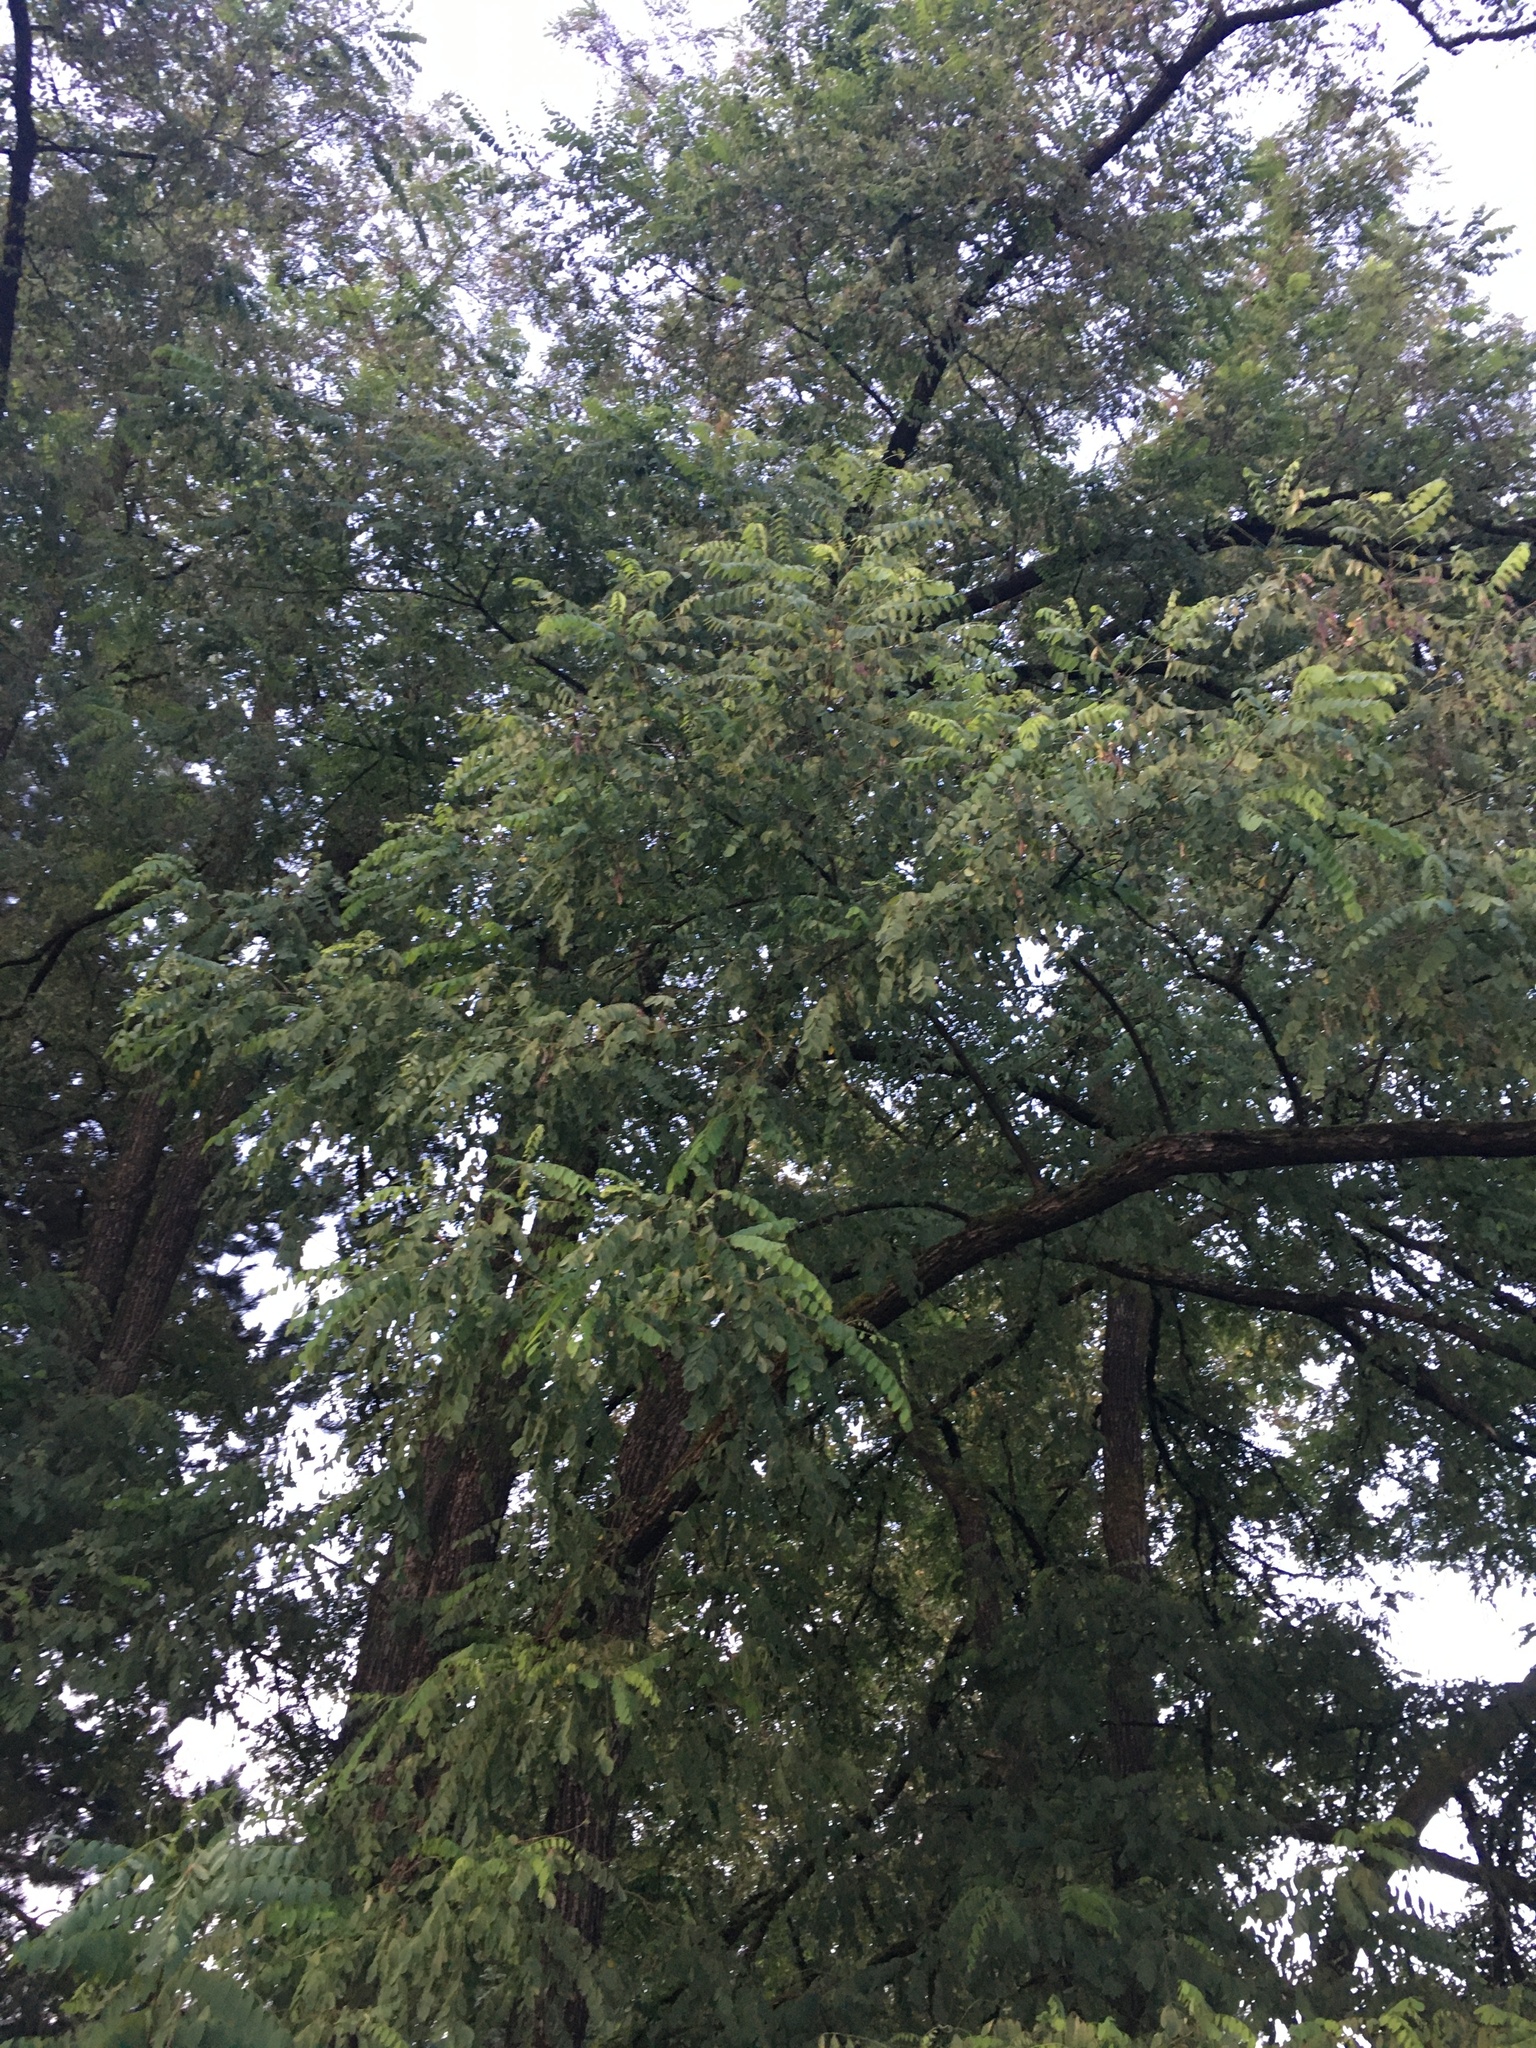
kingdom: Plantae
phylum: Tracheophyta
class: Magnoliopsida
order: Fabales
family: Fabaceae
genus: Robinia
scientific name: Robinia pseudoacacia
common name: Black locust
